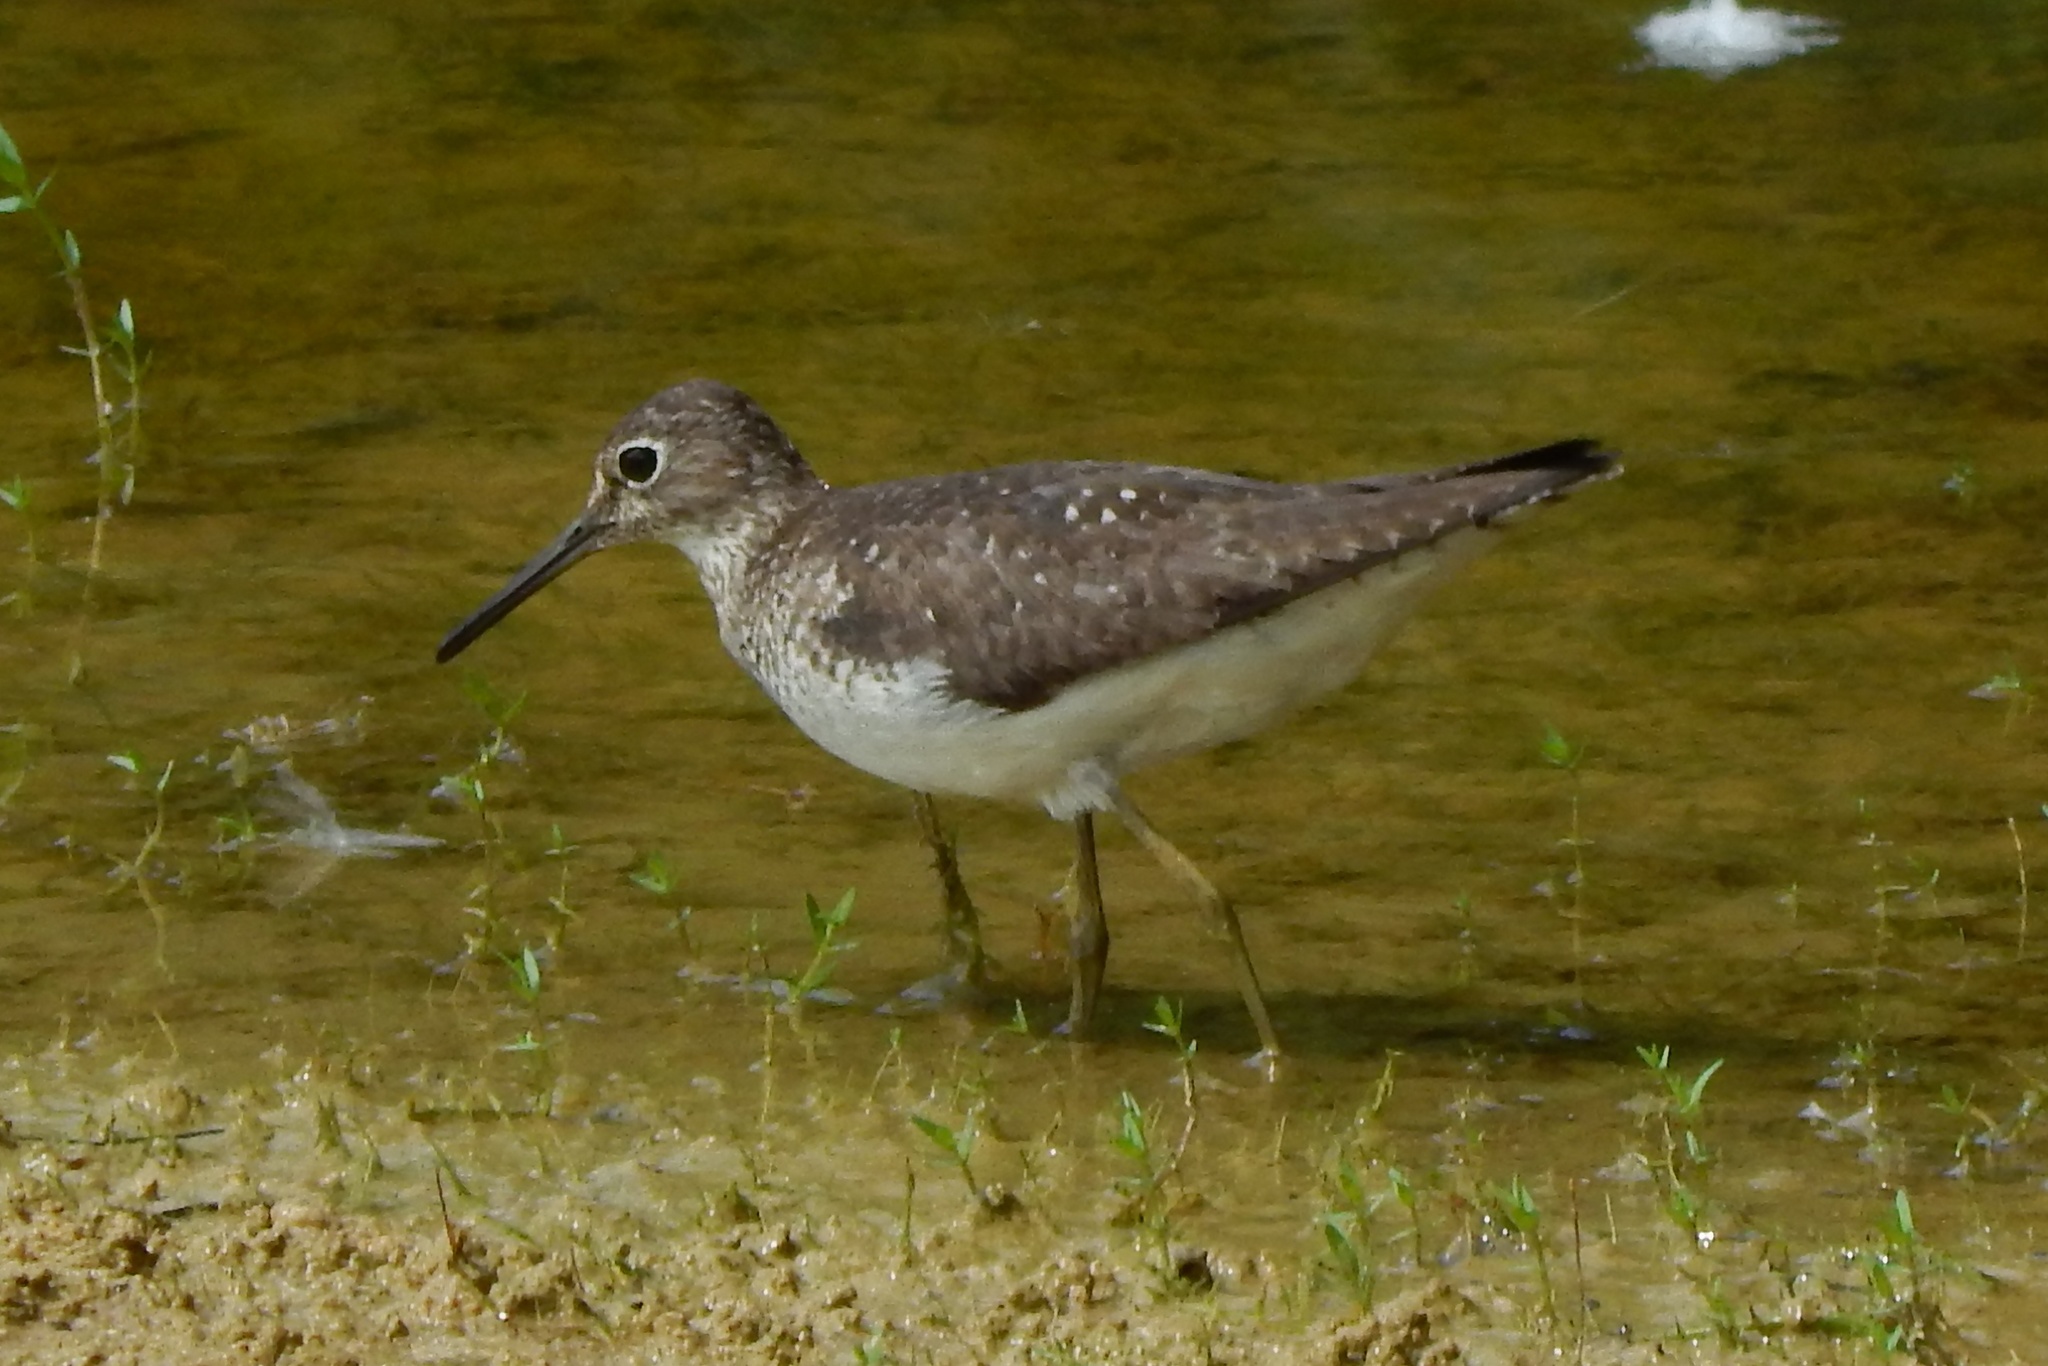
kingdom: Animalia
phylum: Chordata
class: Aves
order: Charadriiformes
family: Scolopacidae
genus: Tringa
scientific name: Tringa solitaria
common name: Solitary sandpiper
